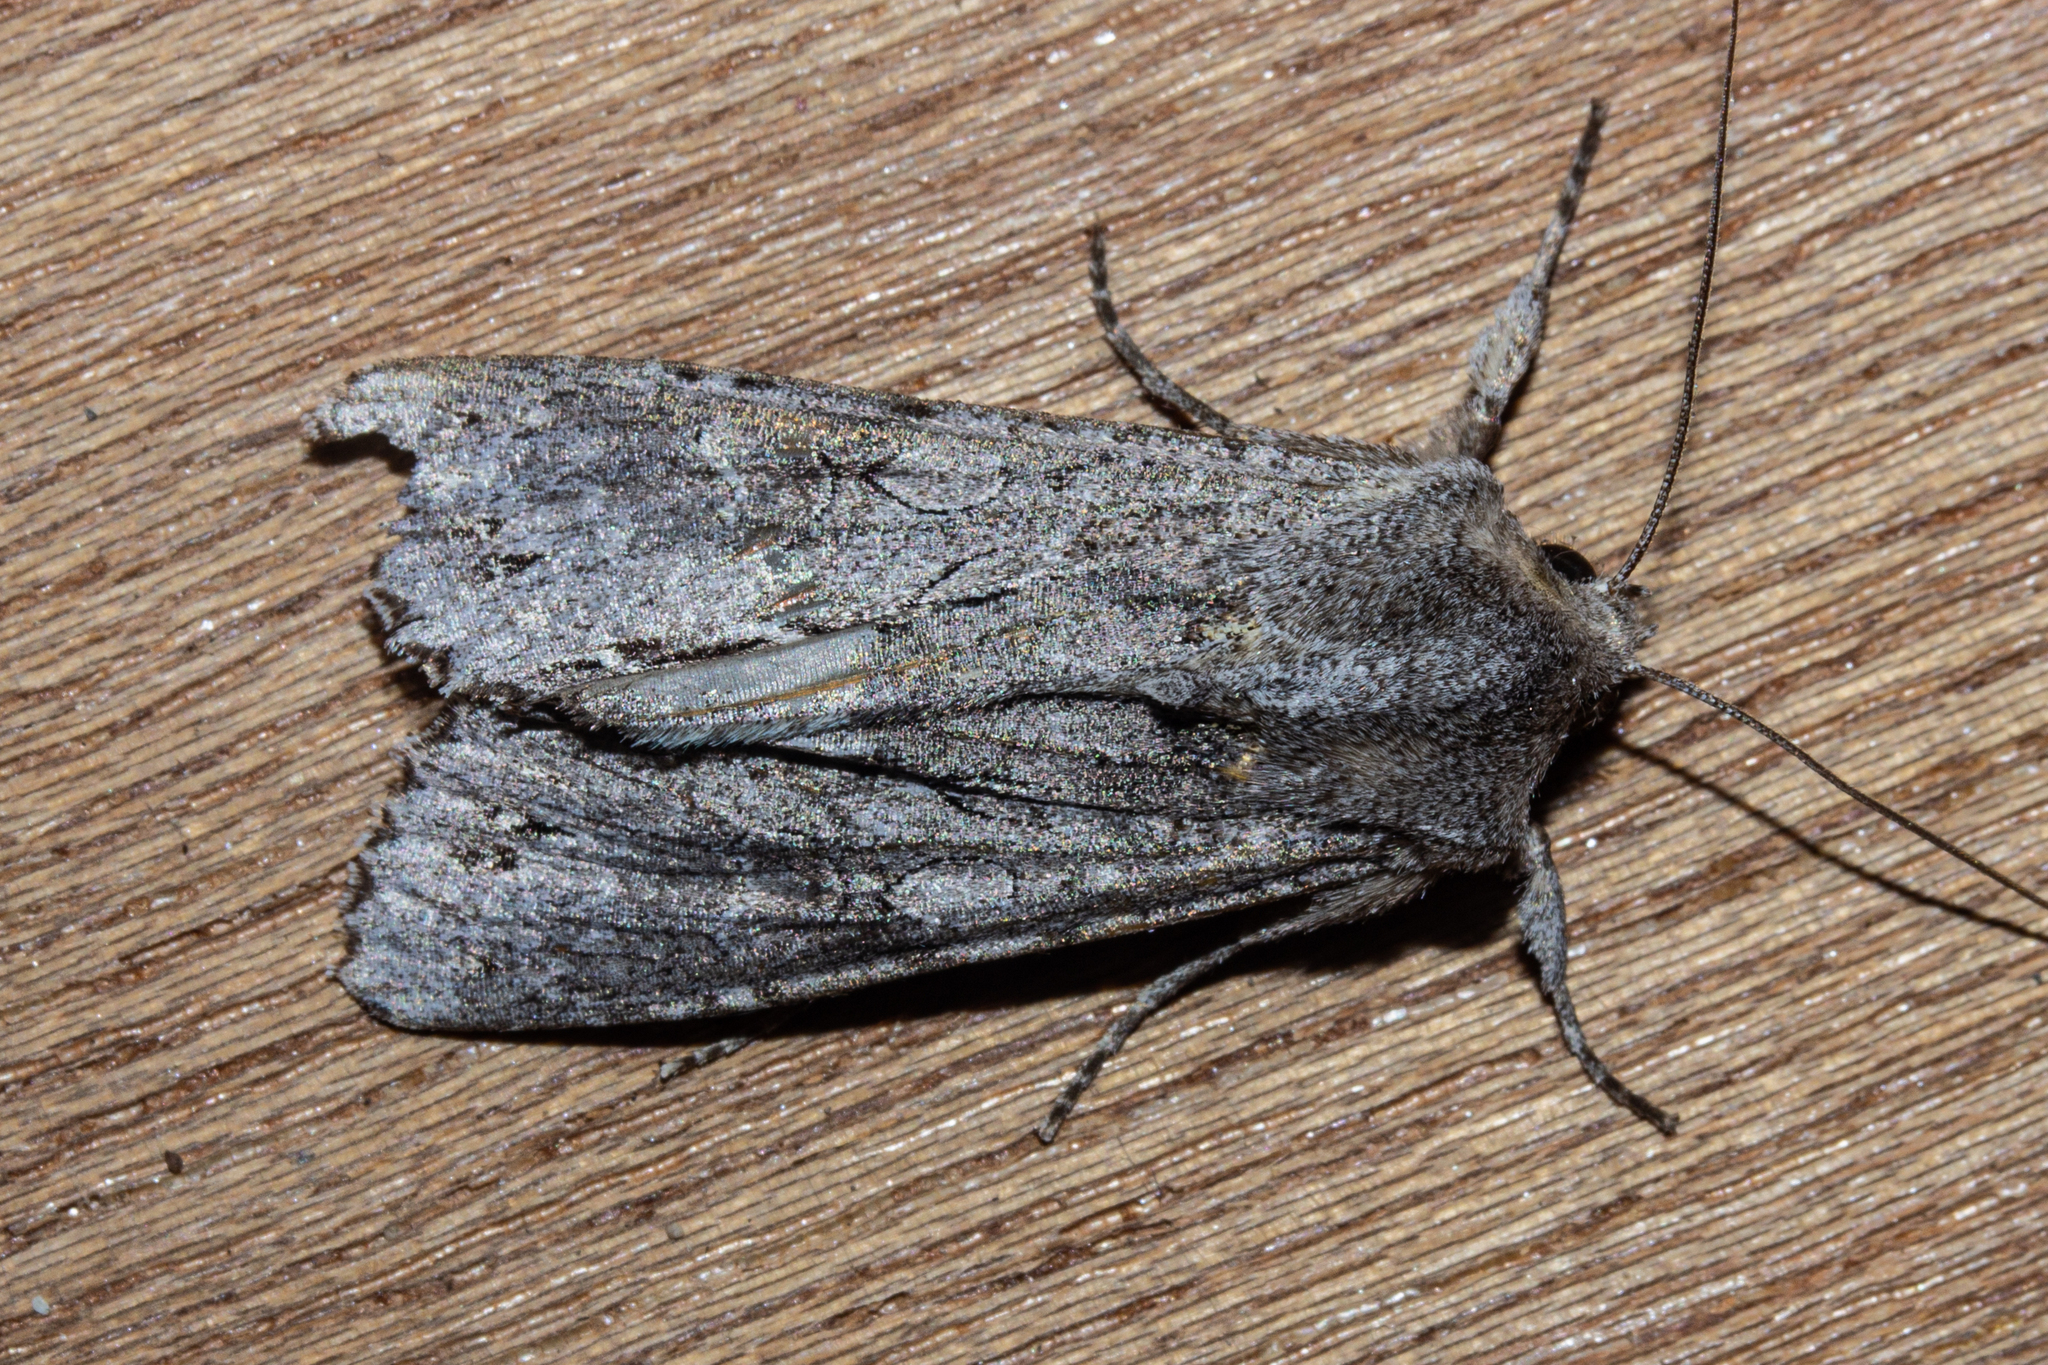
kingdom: Animalia
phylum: Arthropoda
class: Insecta
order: Lepidoptera
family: Noctuidae
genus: Ichneutica
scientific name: Ichneutica
